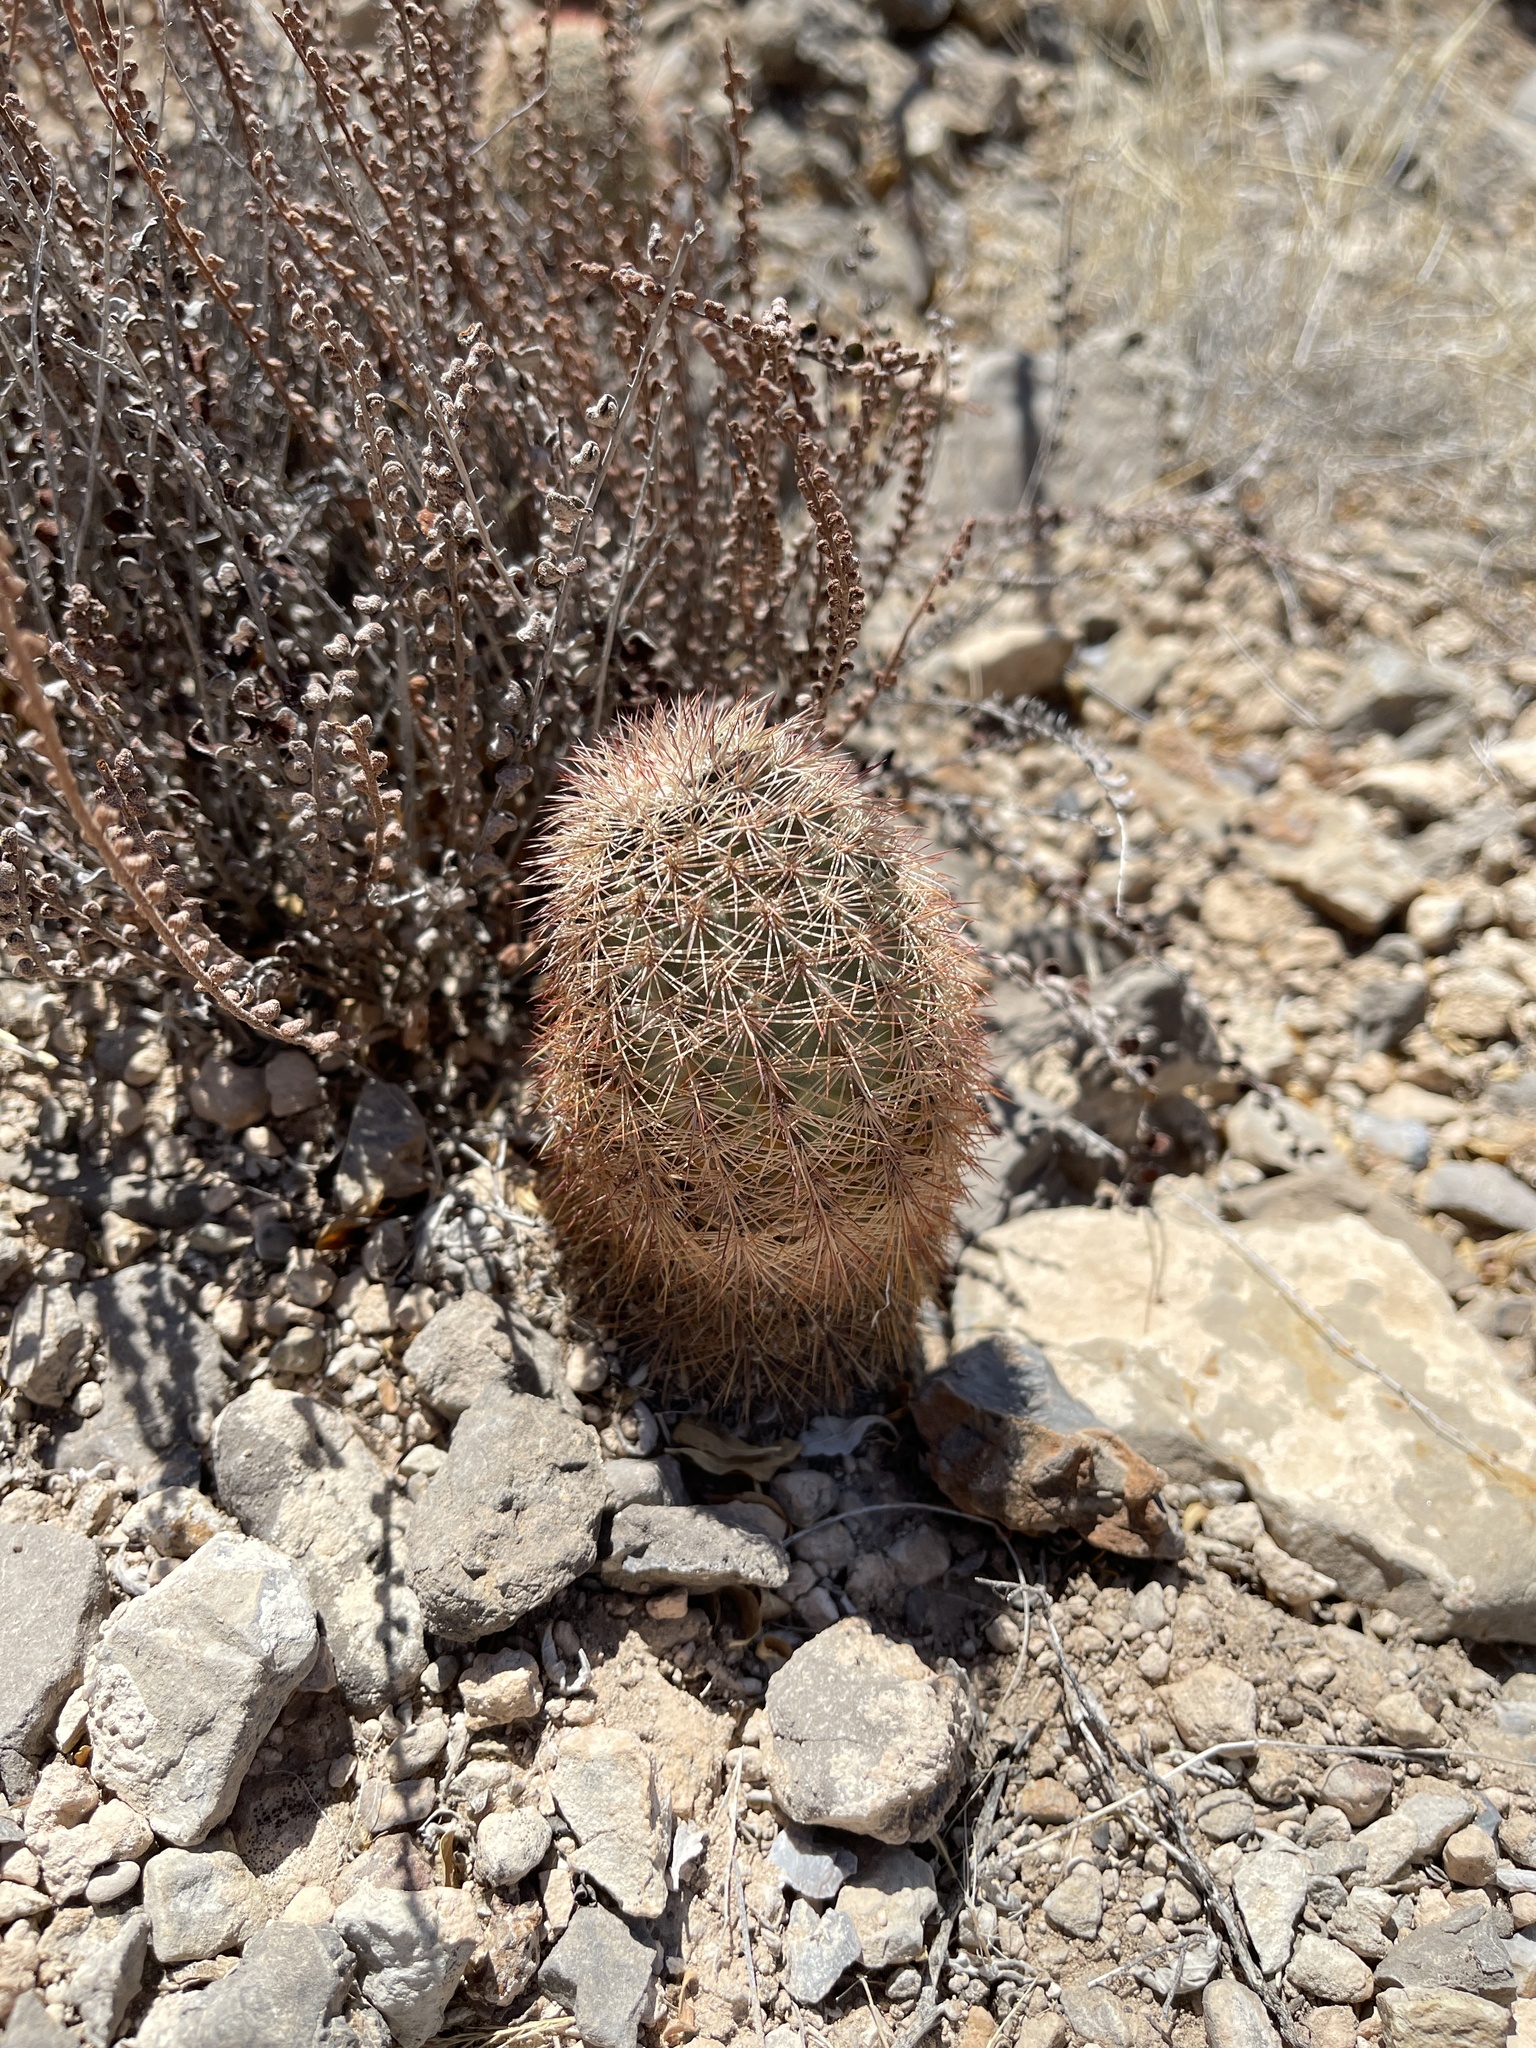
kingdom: Plantae
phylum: Tracheophyta
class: Magnoliopsida
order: Caryophyllales
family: Cactaceae
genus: Echinocereus
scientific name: Echinocereus dasyacanthus
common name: Spiny hedgehog cactus
